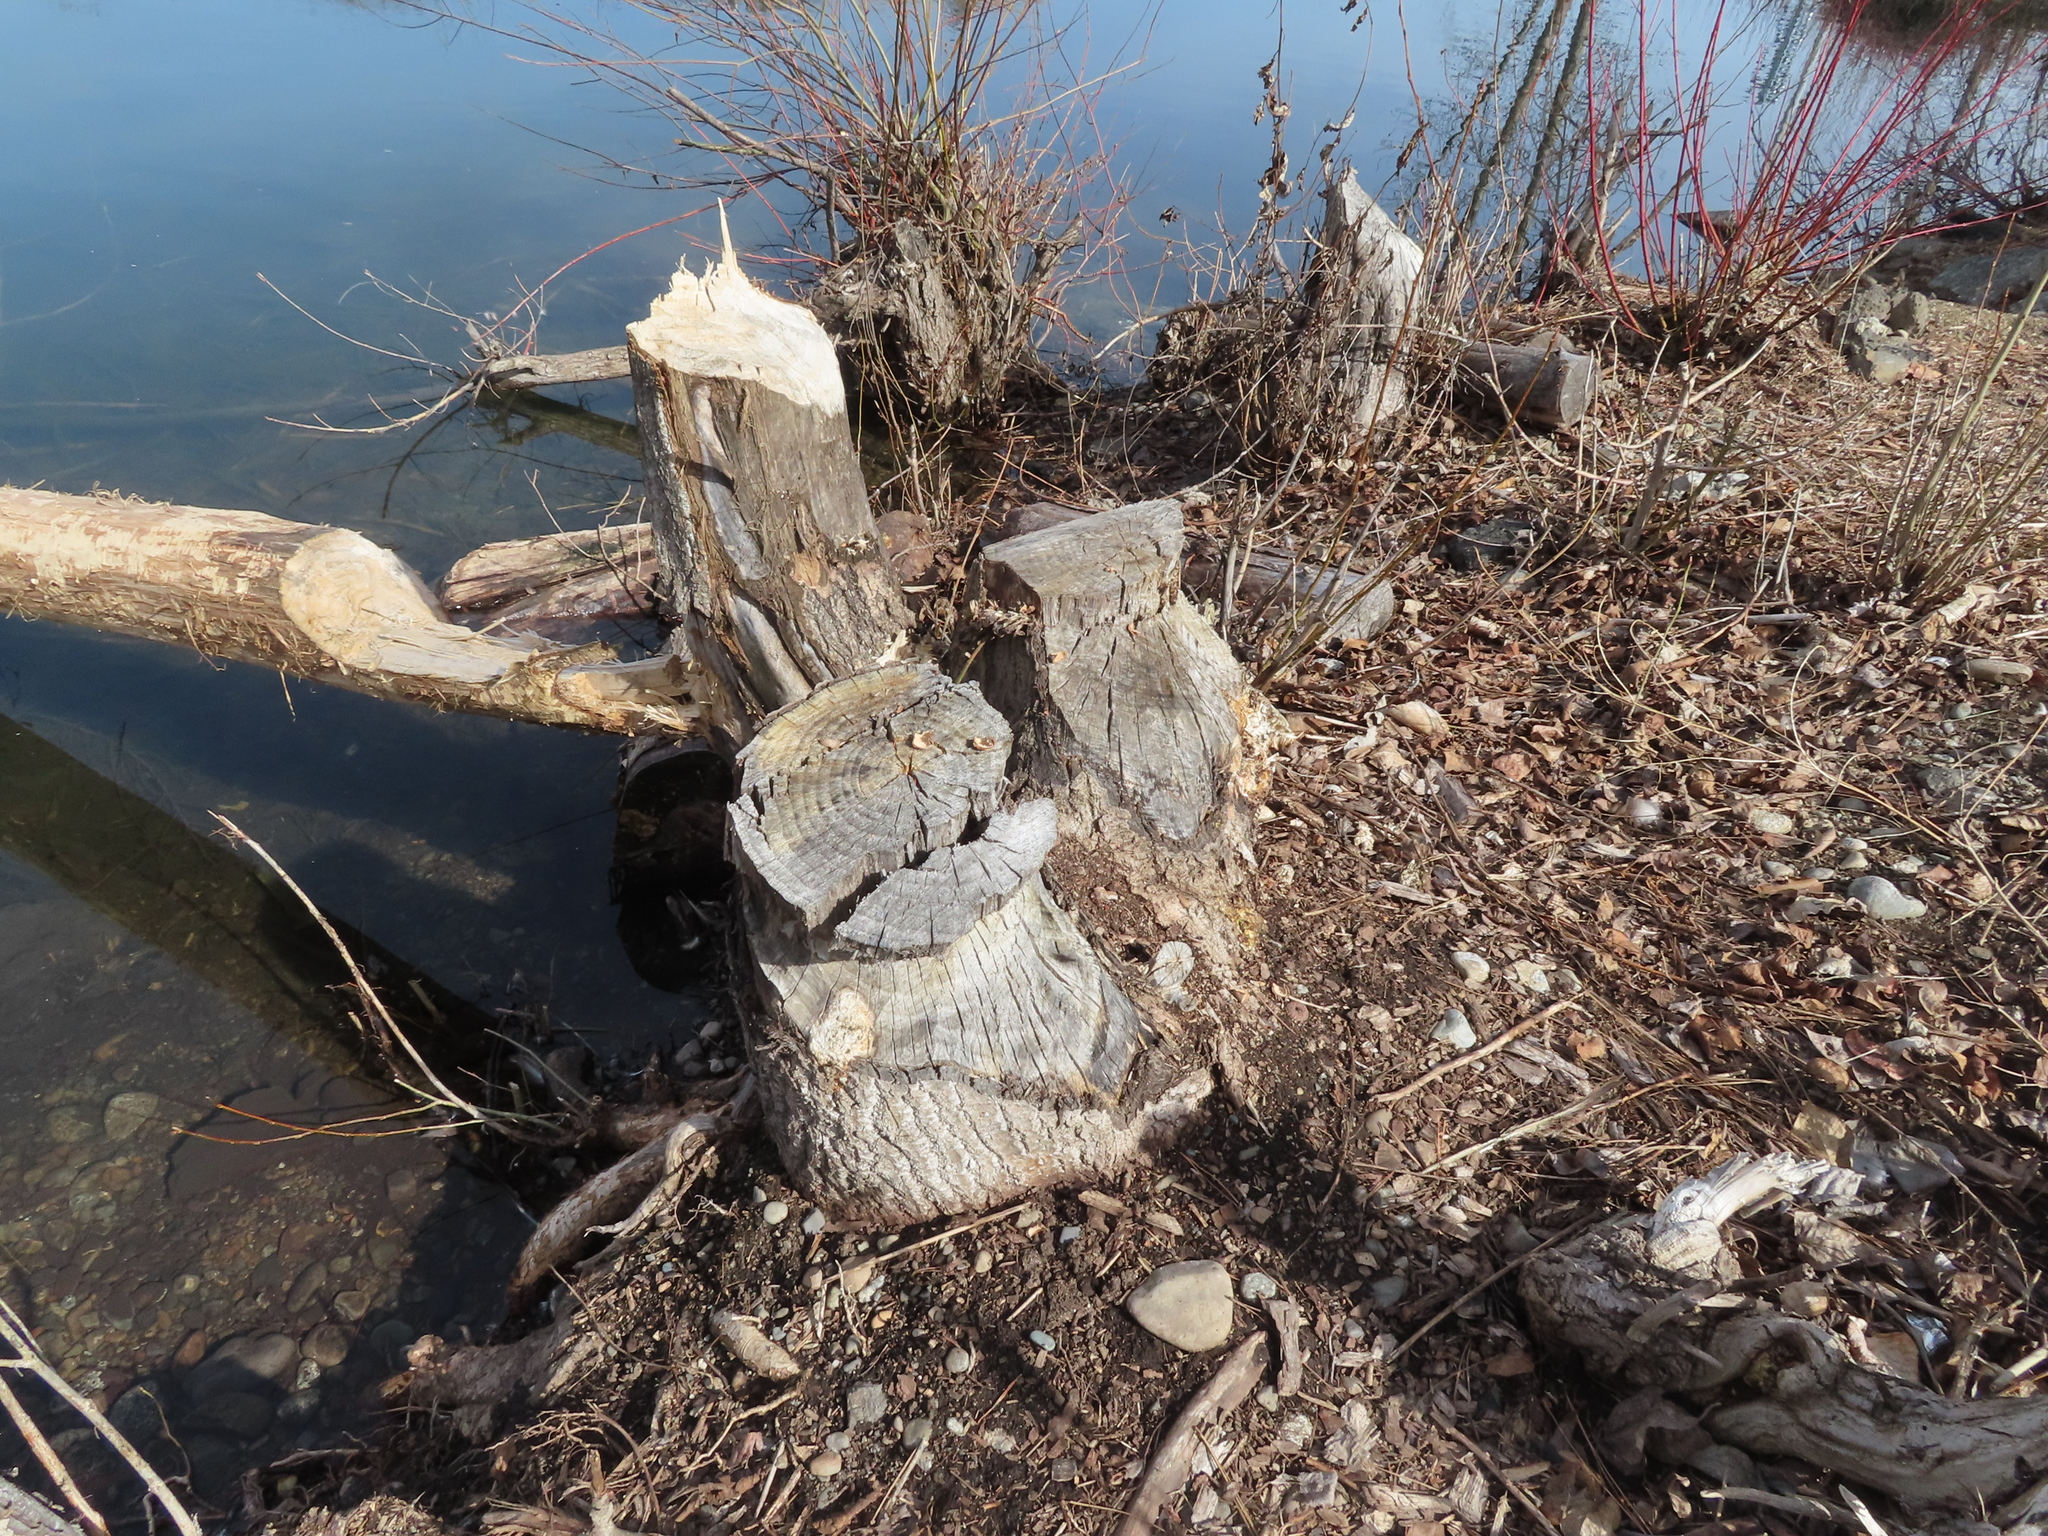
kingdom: Animalia
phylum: Chordata
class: Mammalia
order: Rodentia
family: Castoridae
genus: Castor
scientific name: Castor canadensis
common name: American beaver
